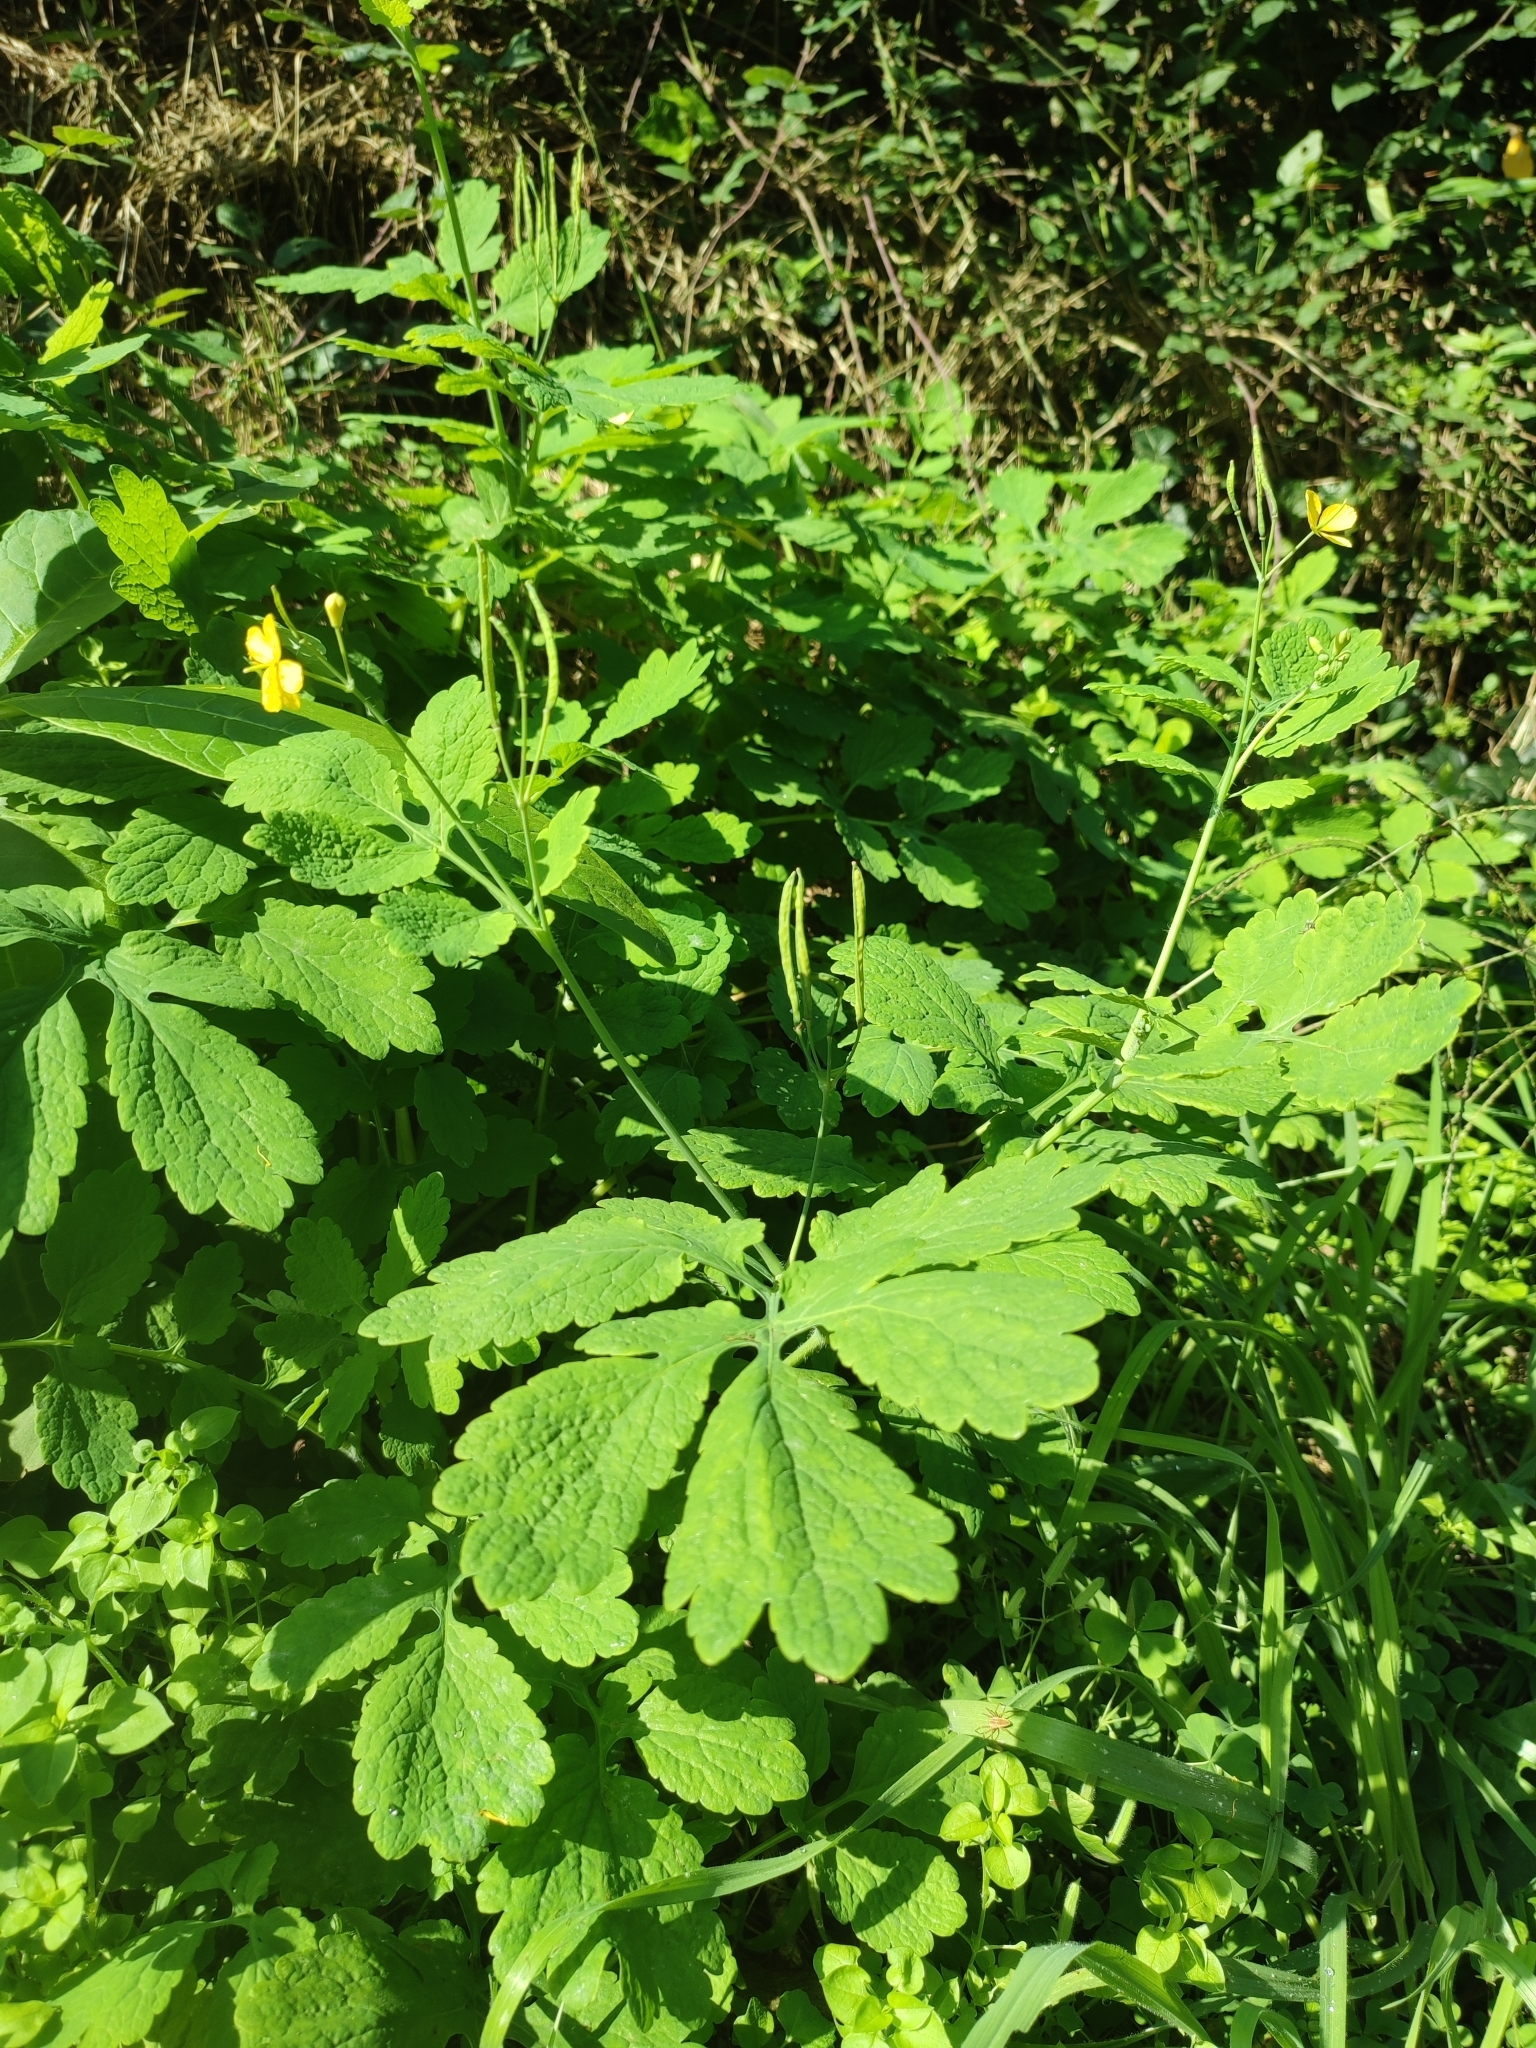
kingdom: Plantae
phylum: Tracheophyta
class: Magnoliopsida
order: Ranunculales
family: Papaveraceae
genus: Chelidonium
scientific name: Chelidonium majus
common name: Greater celandine
